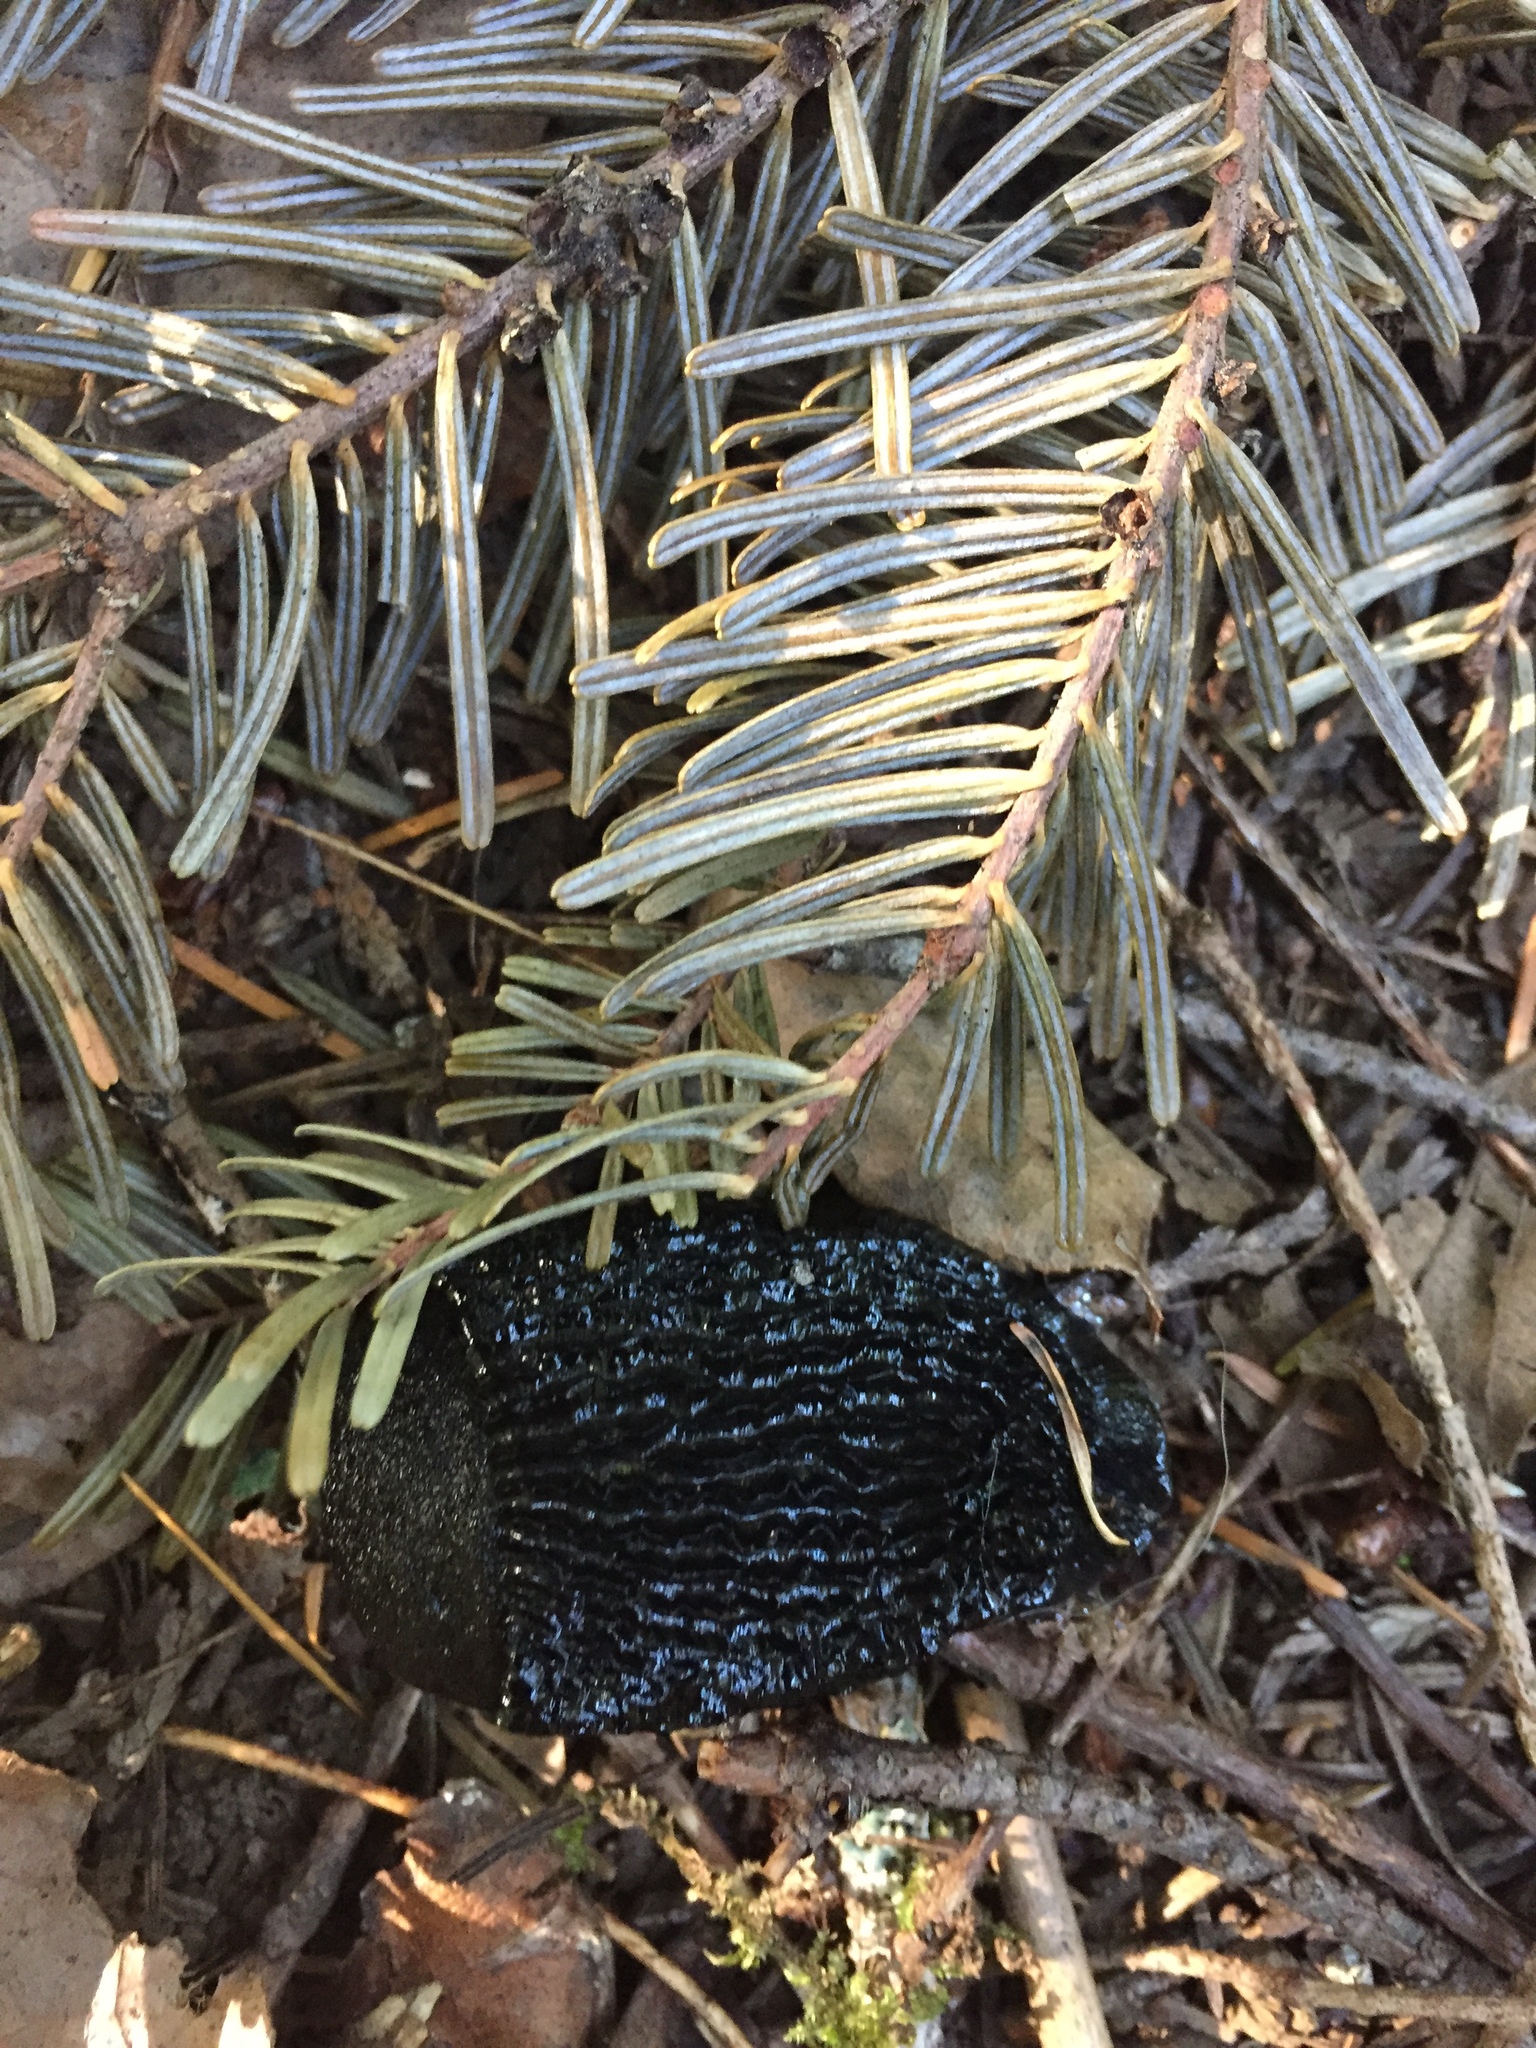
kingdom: Animalia
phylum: Mollusca
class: Gastropoda
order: Stylommatophora
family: Arionidae
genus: Arion
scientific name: Arion
